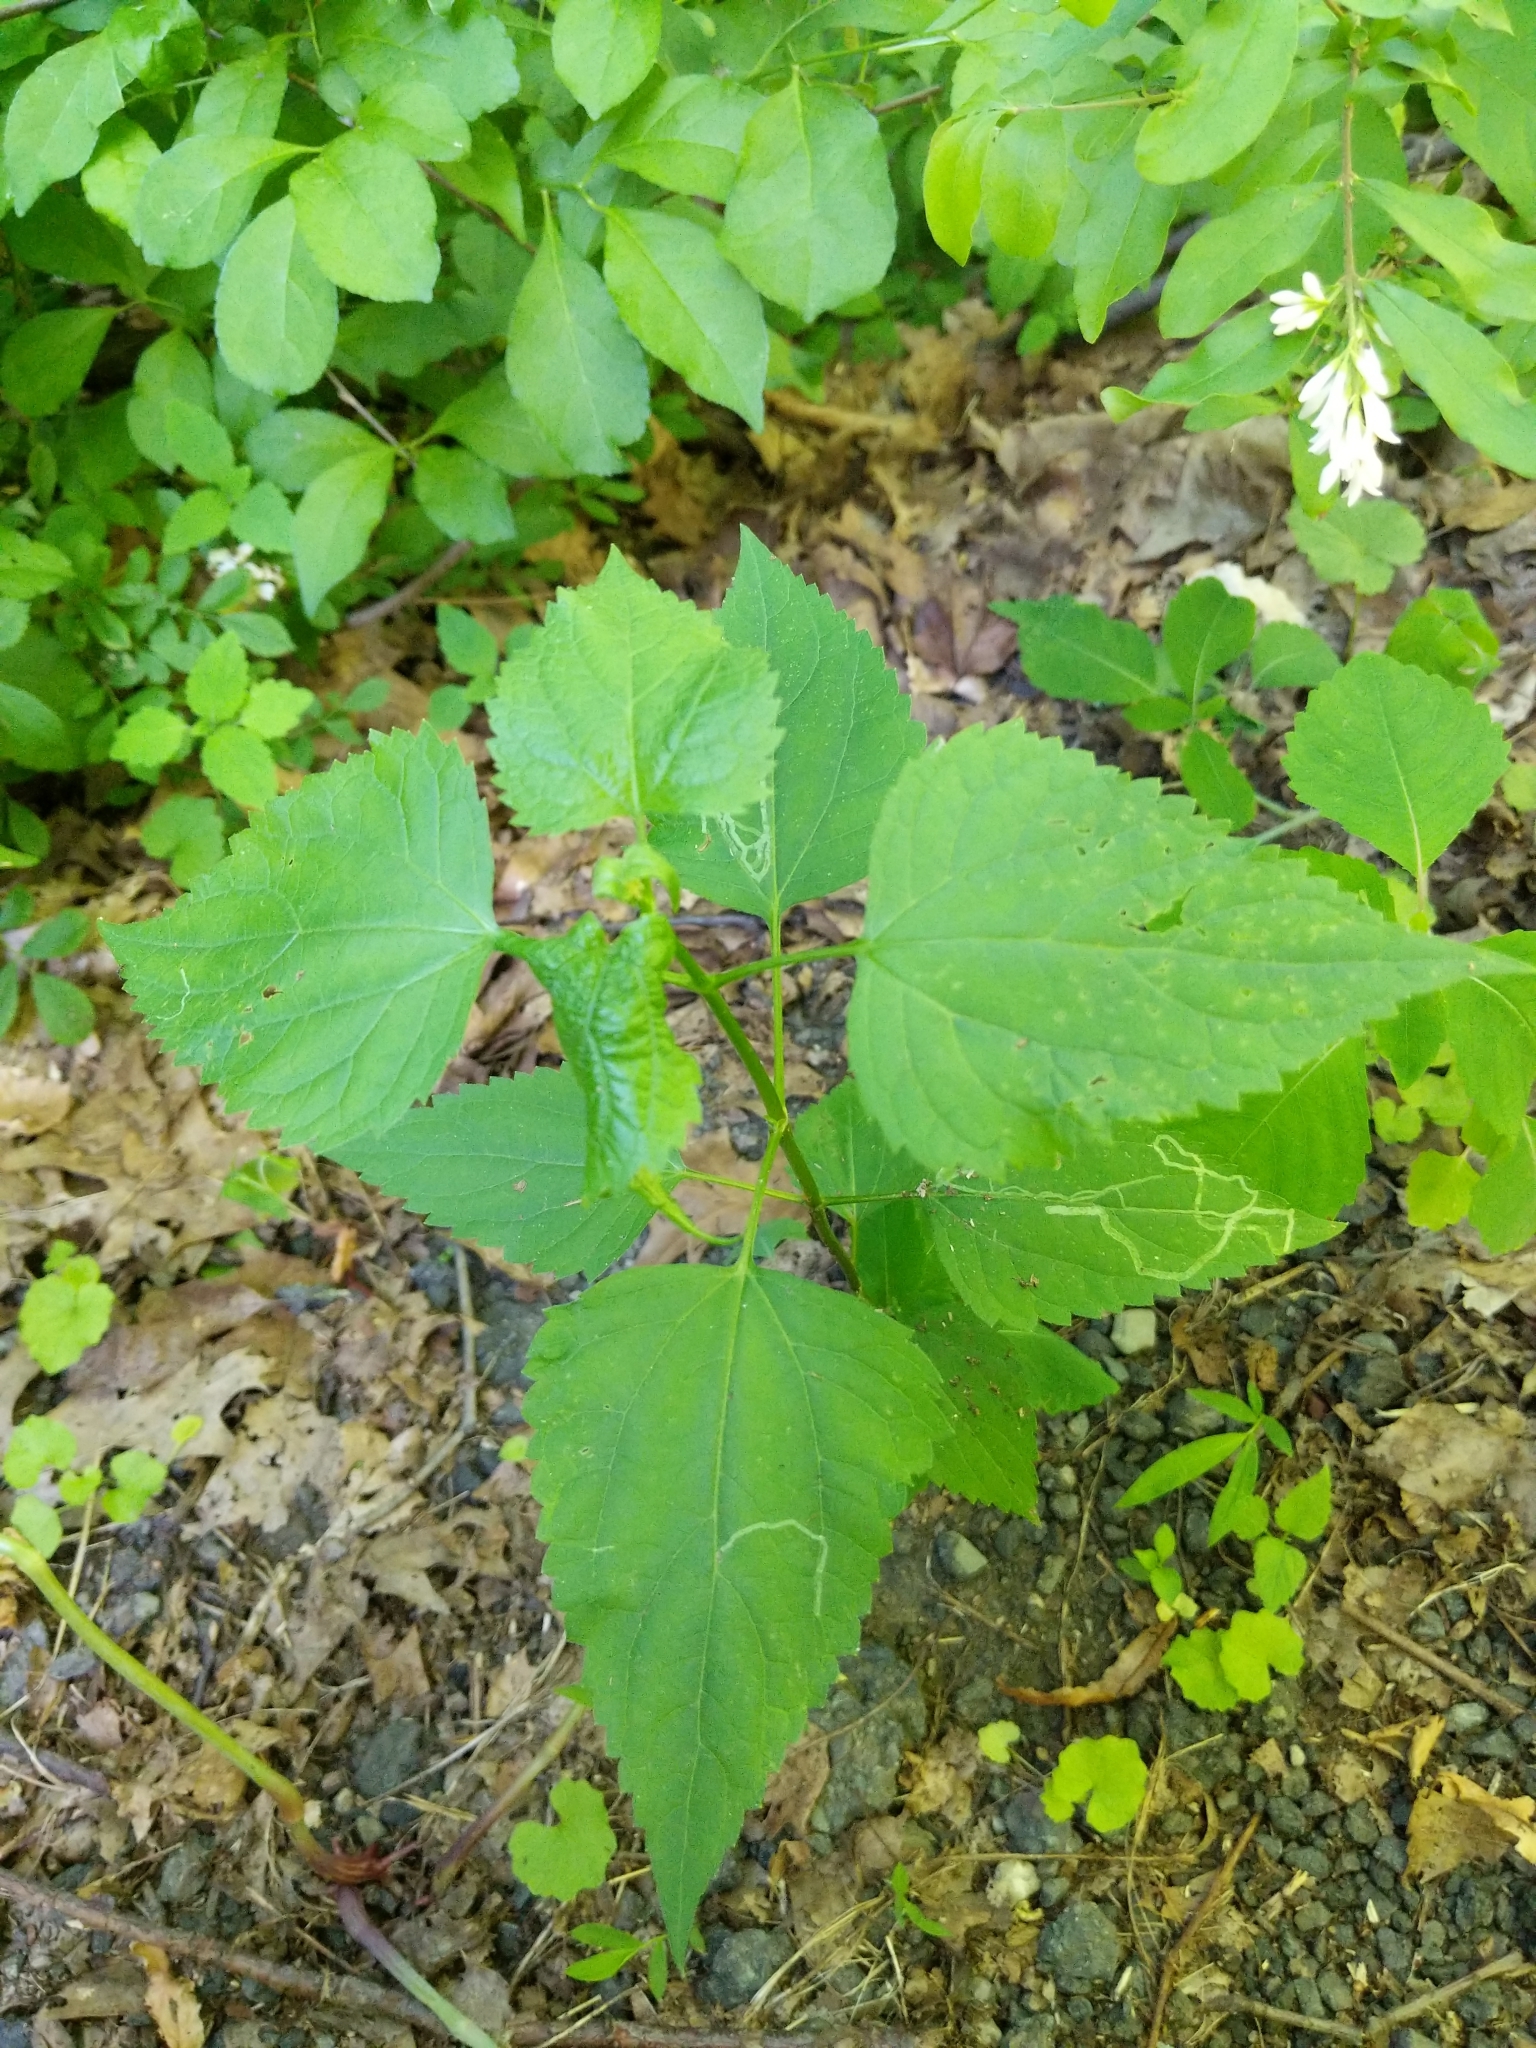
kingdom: Plantae
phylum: Tracheophyta
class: Magnoliopsida
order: Asterales
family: Asteraceae
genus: Ageratina
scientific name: Ageratina altissima
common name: White snakeroot
